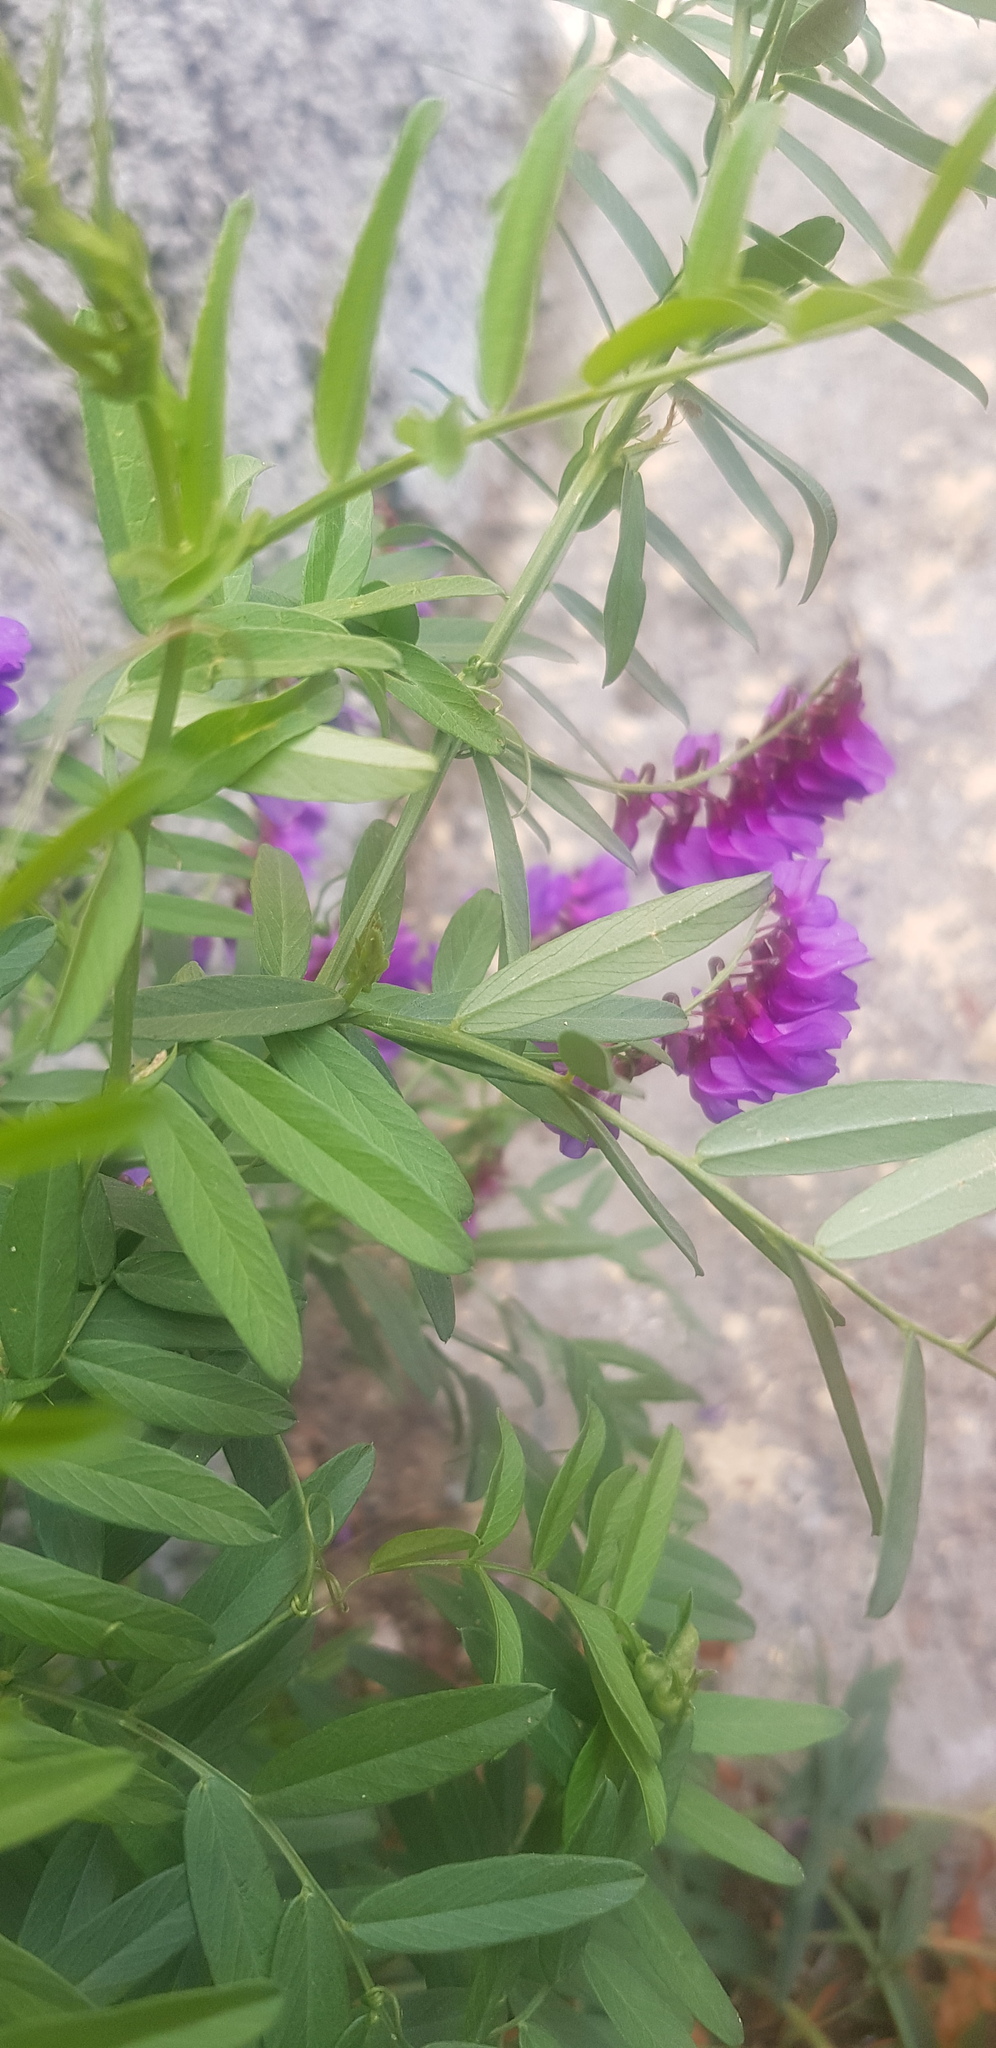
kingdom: Plantae
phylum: Tracheophyta
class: Magnoliopsida
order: Fabales
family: Fabaceae
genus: Vicia
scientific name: Vicia amoena
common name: Cheder ebs
